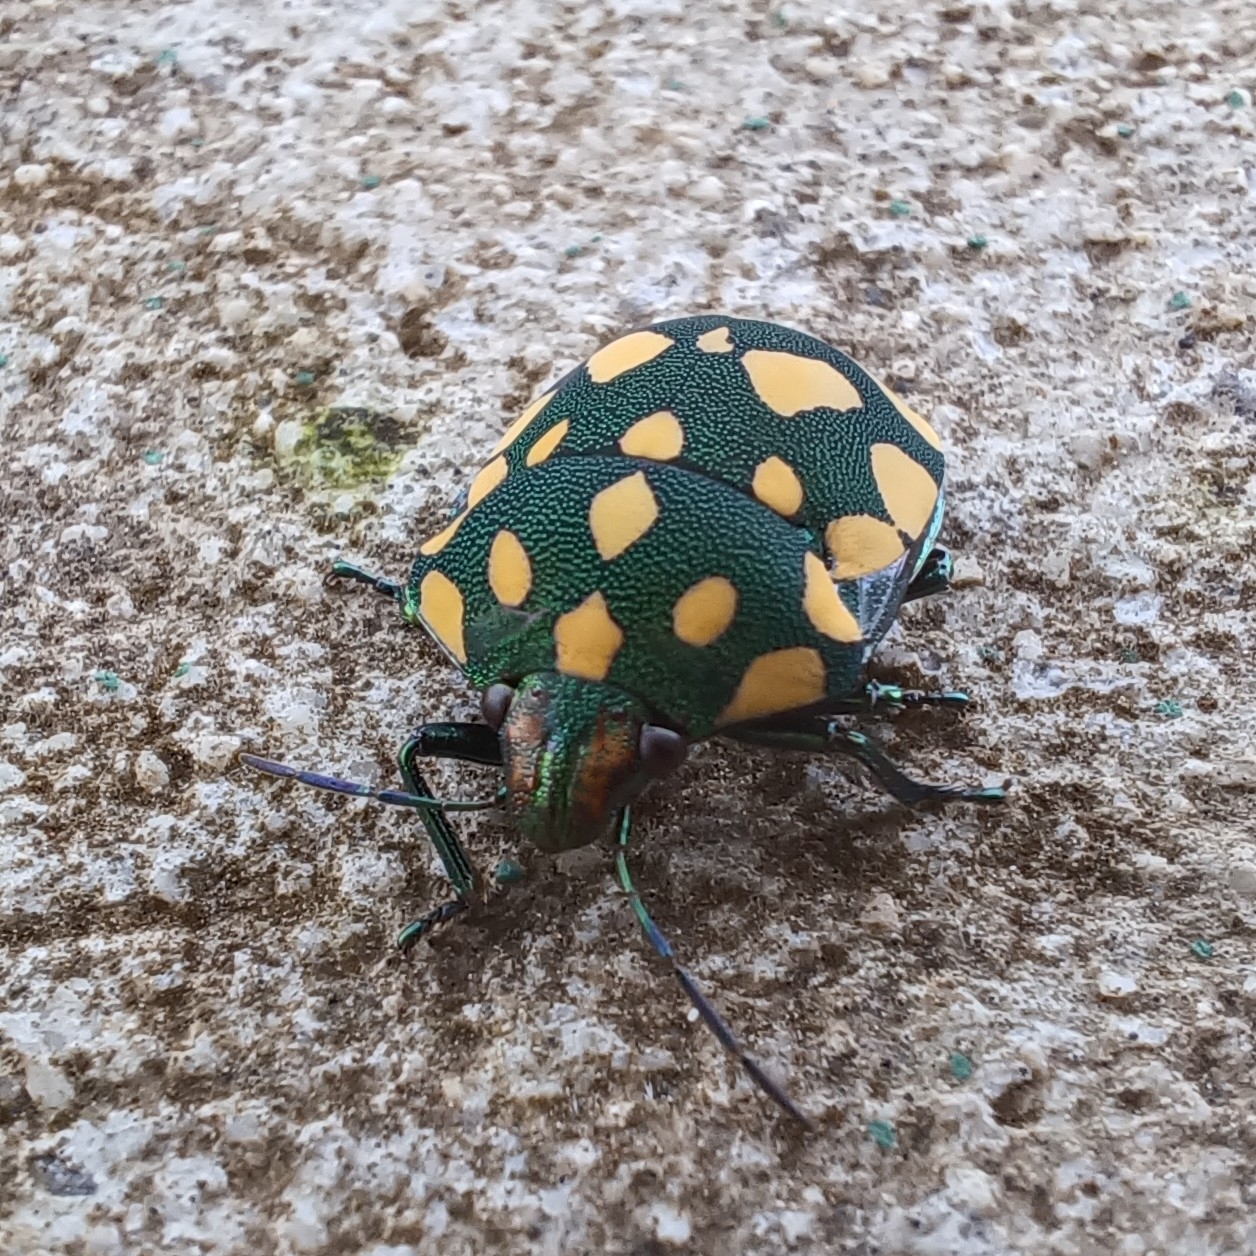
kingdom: Animalia
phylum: Arthropoda
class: Insecta
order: Hemiptera
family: Scutelleridae
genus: Pachycoris
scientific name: Pachycoris torridus
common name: Torrid jewel bug
